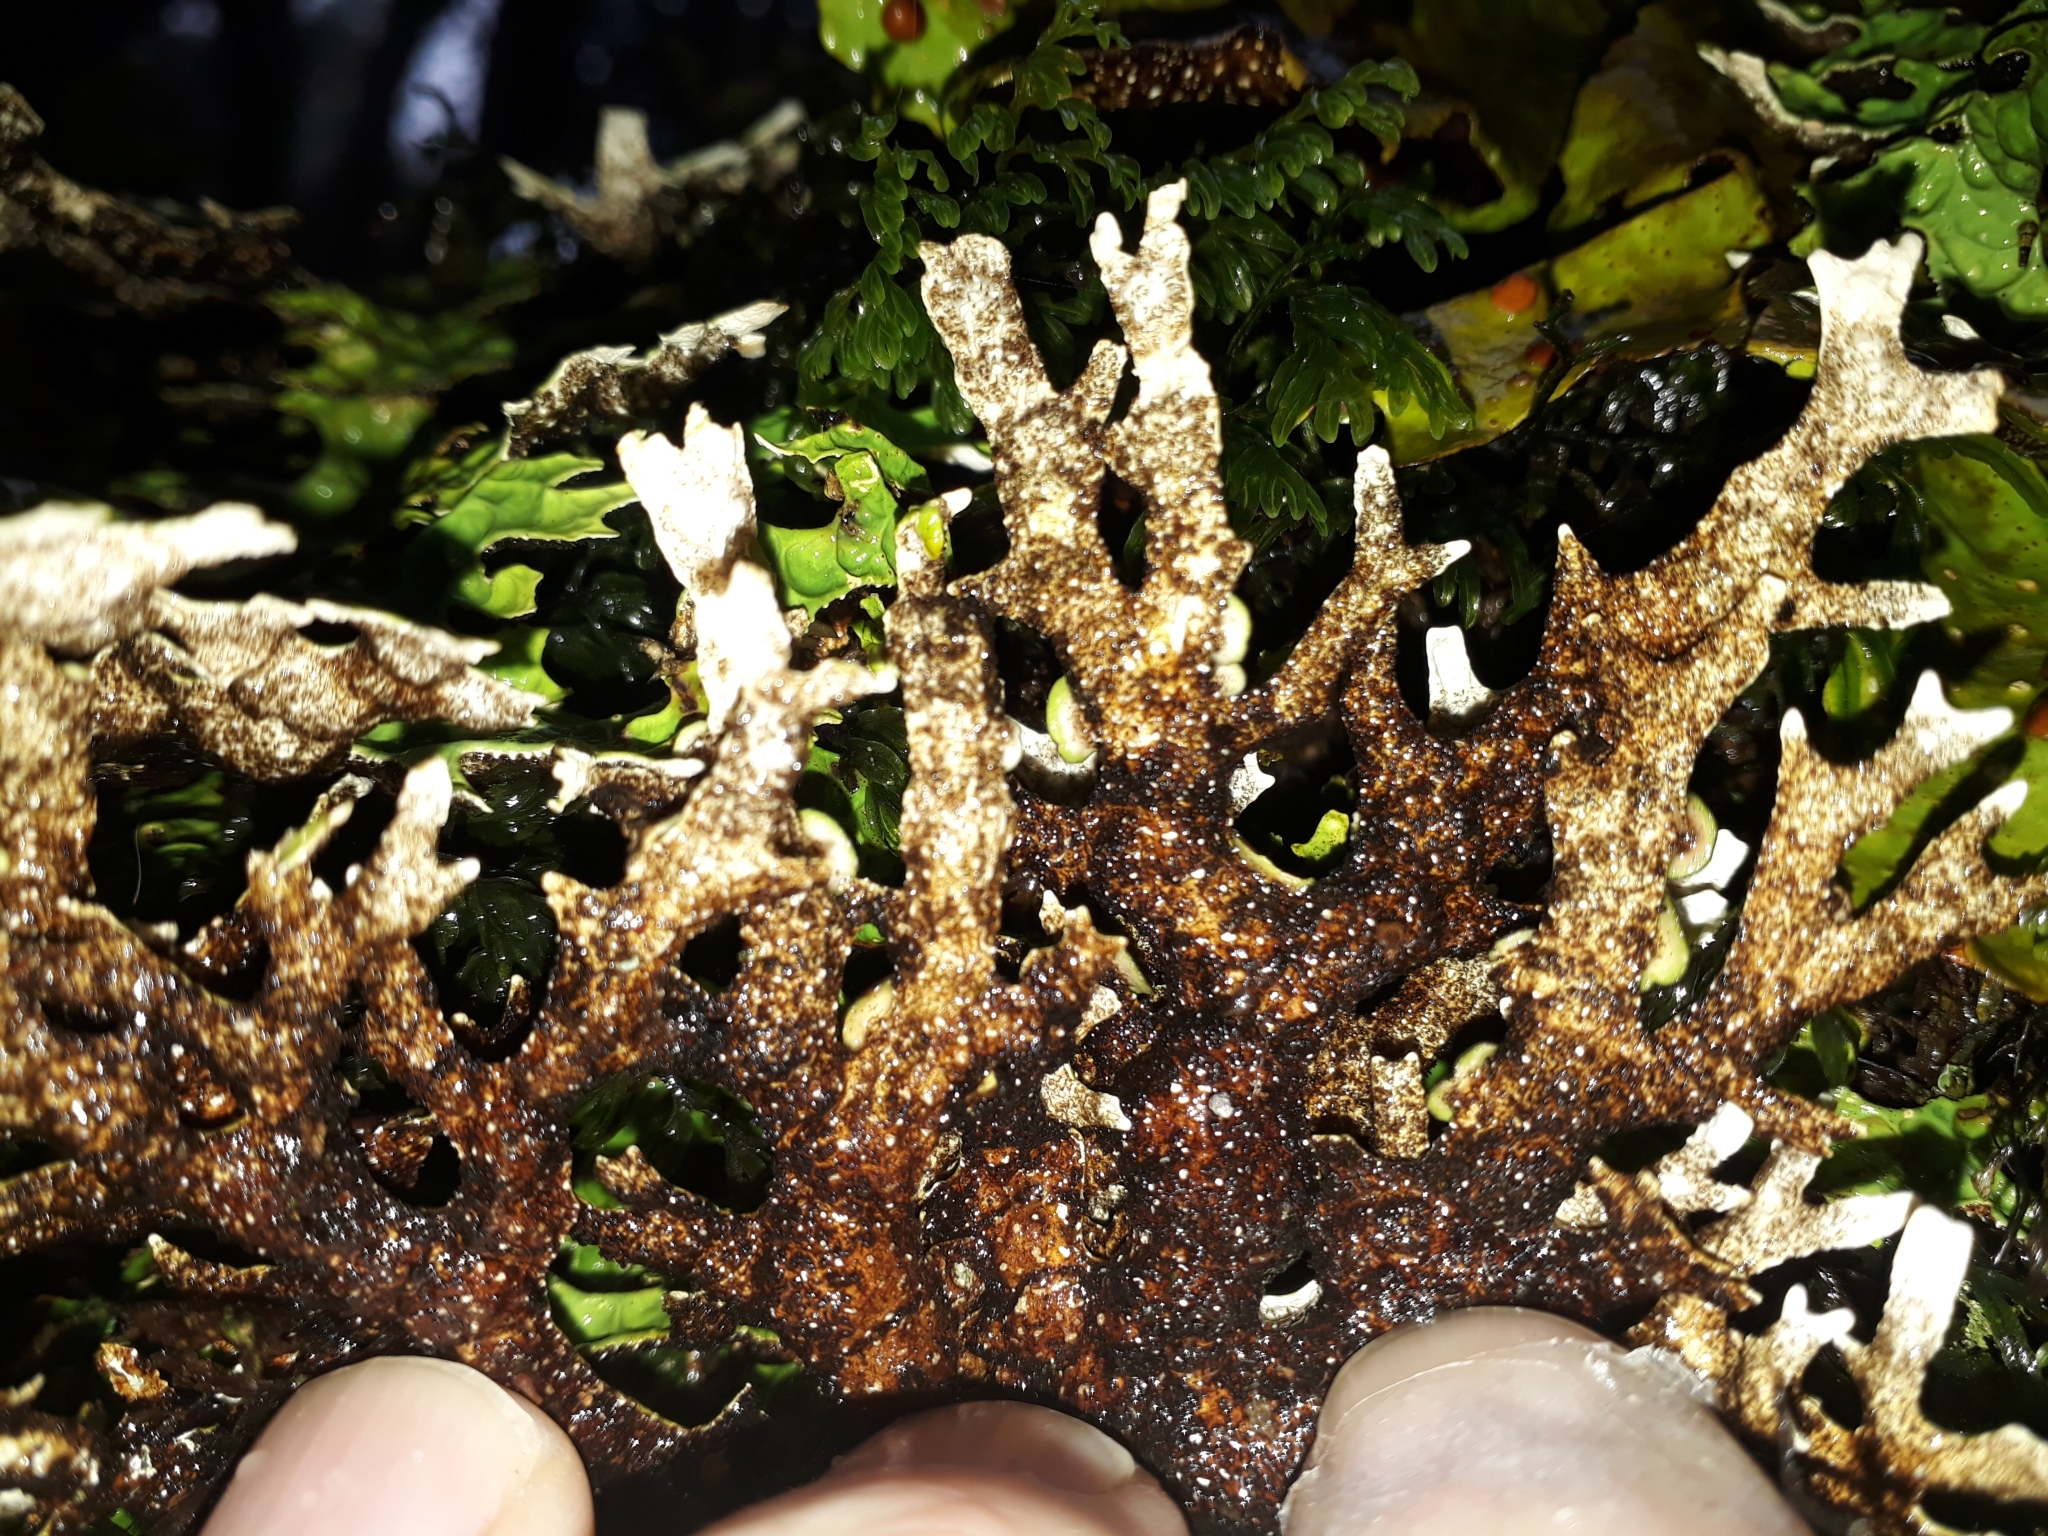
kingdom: Fungi
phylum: Ascomycota
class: Lecanoromycetes
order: Peltigerales
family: Lobariaceae
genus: Pseudocyphellaria
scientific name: Pseudocyphellaria billardierei
